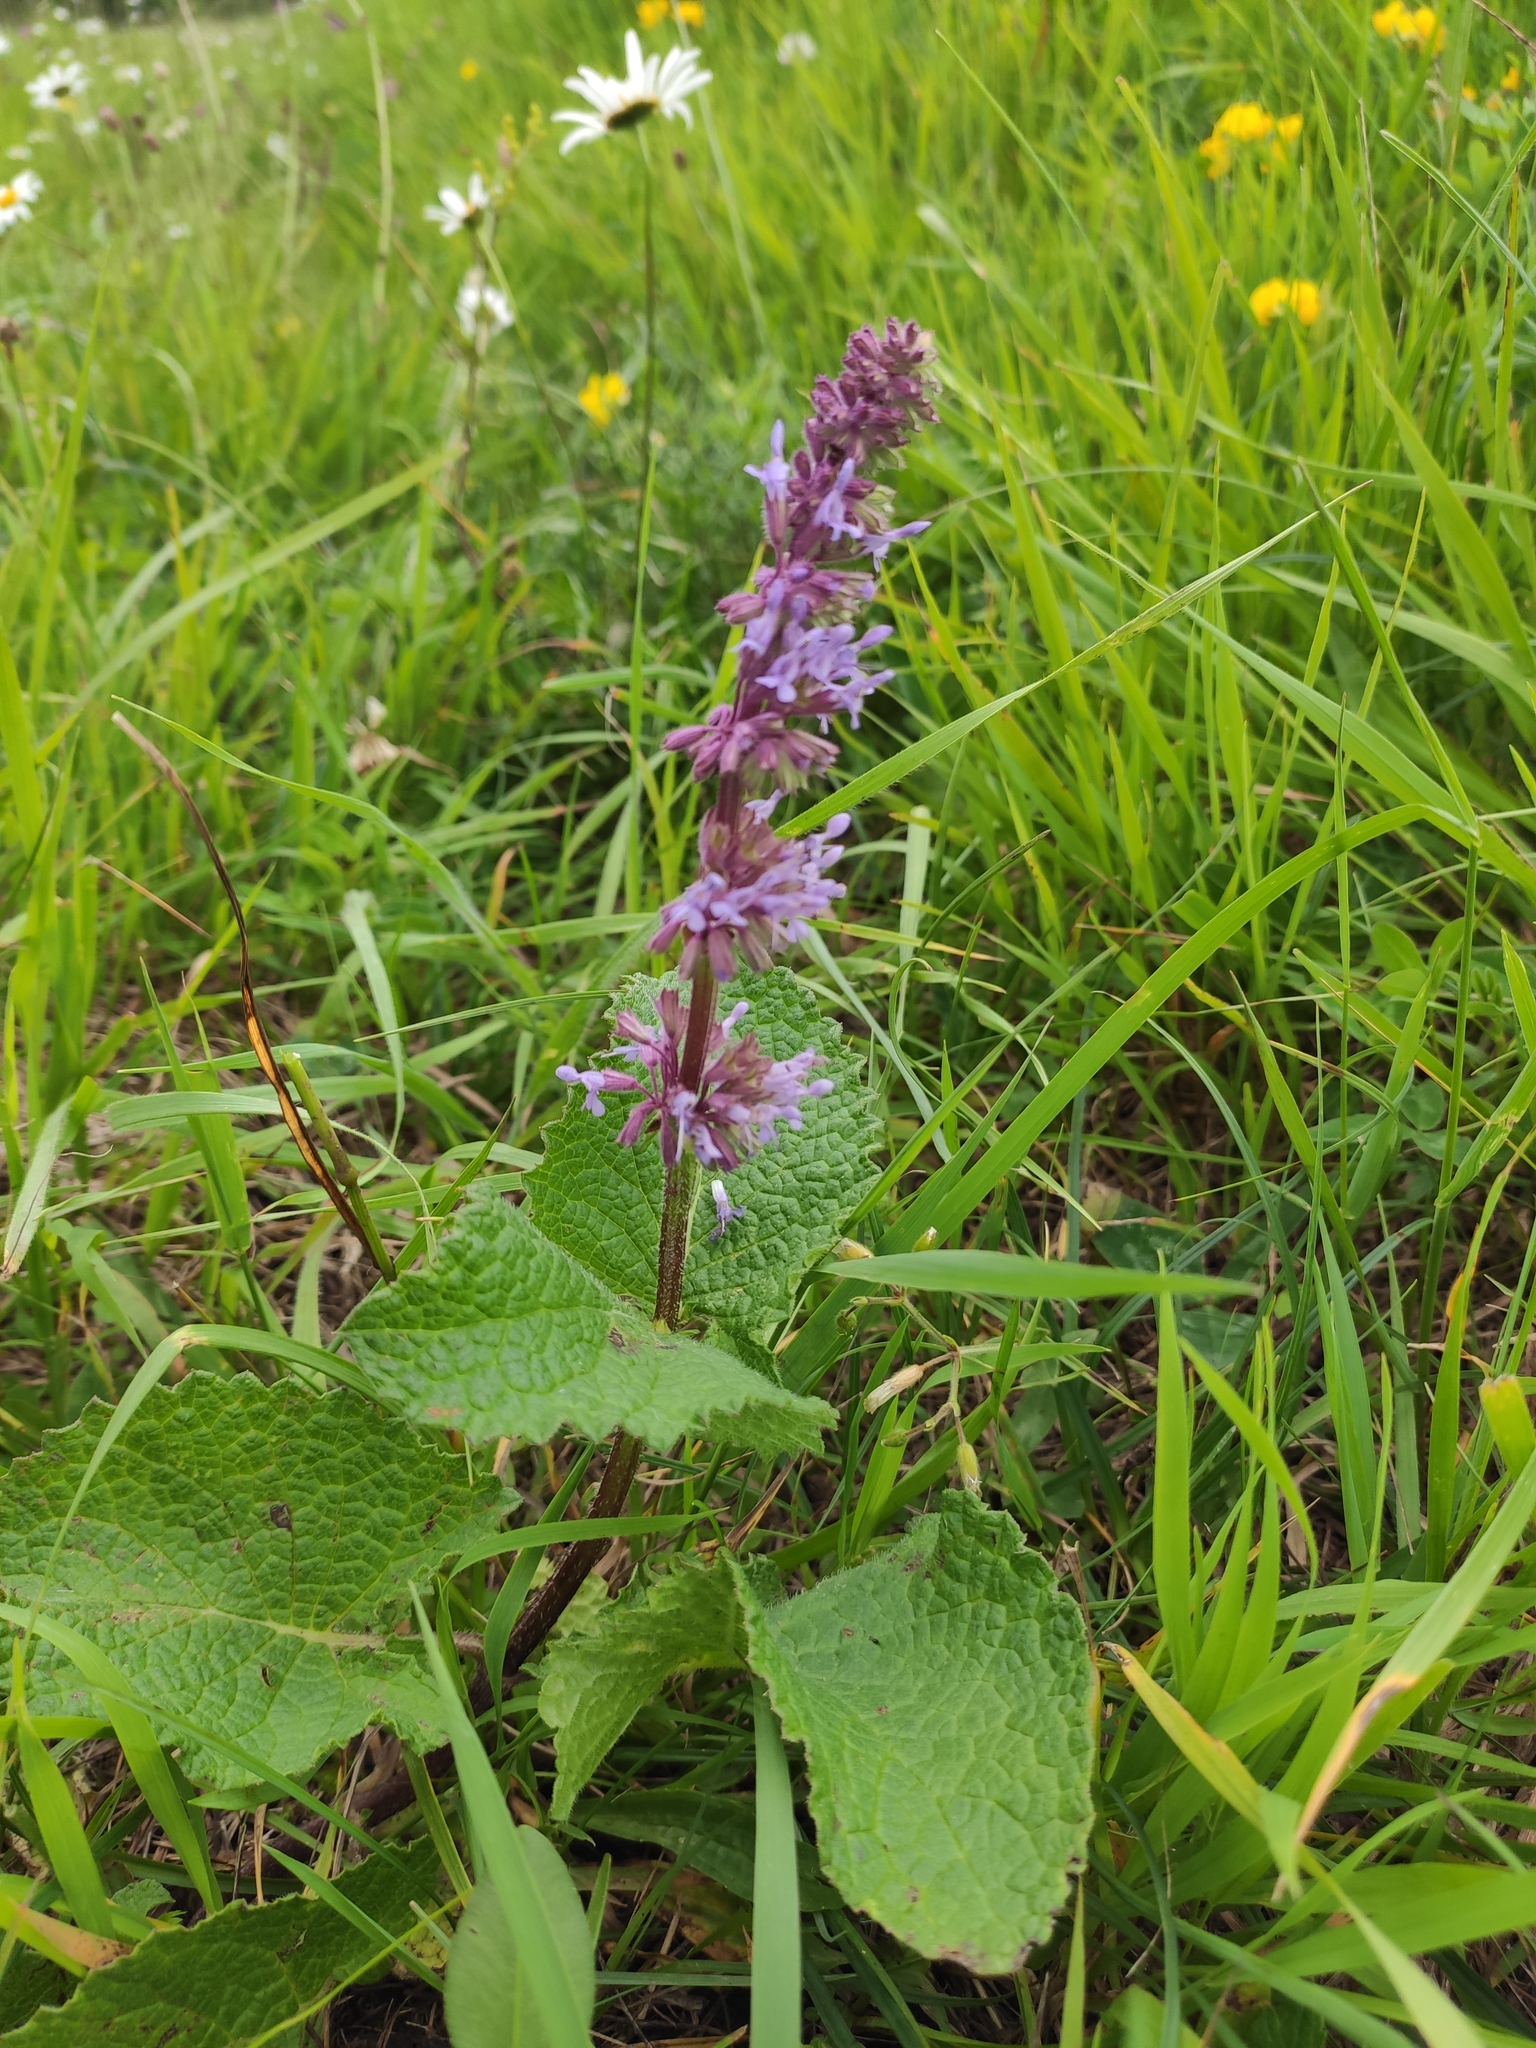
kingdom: Plantae
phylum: Tracheophyta
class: Magnoliopsida
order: Lamiales
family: Lamiaceae
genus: Salvia
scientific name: Salvia verticillata
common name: Whorled clary
